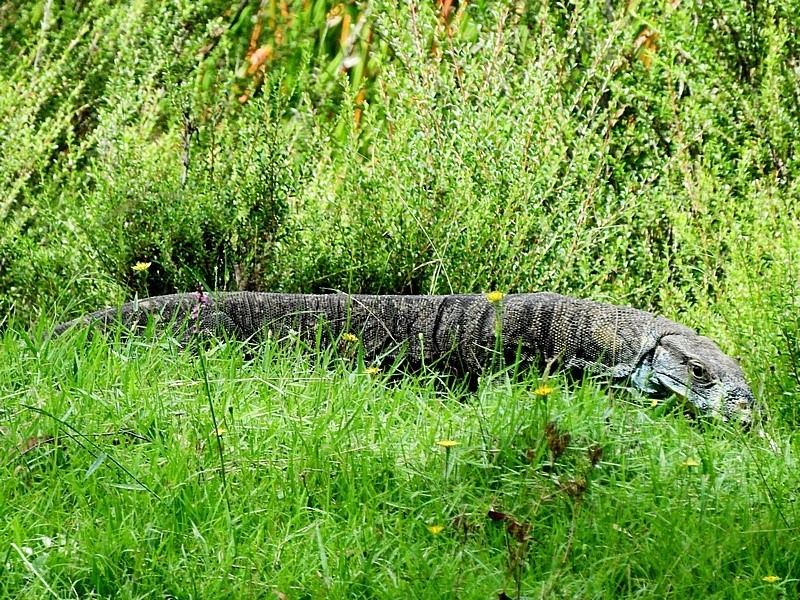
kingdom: Animalia
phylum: Chordata
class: Squamata
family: Varanidae
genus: Varanus
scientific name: Varanus varius
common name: Lace monitor
